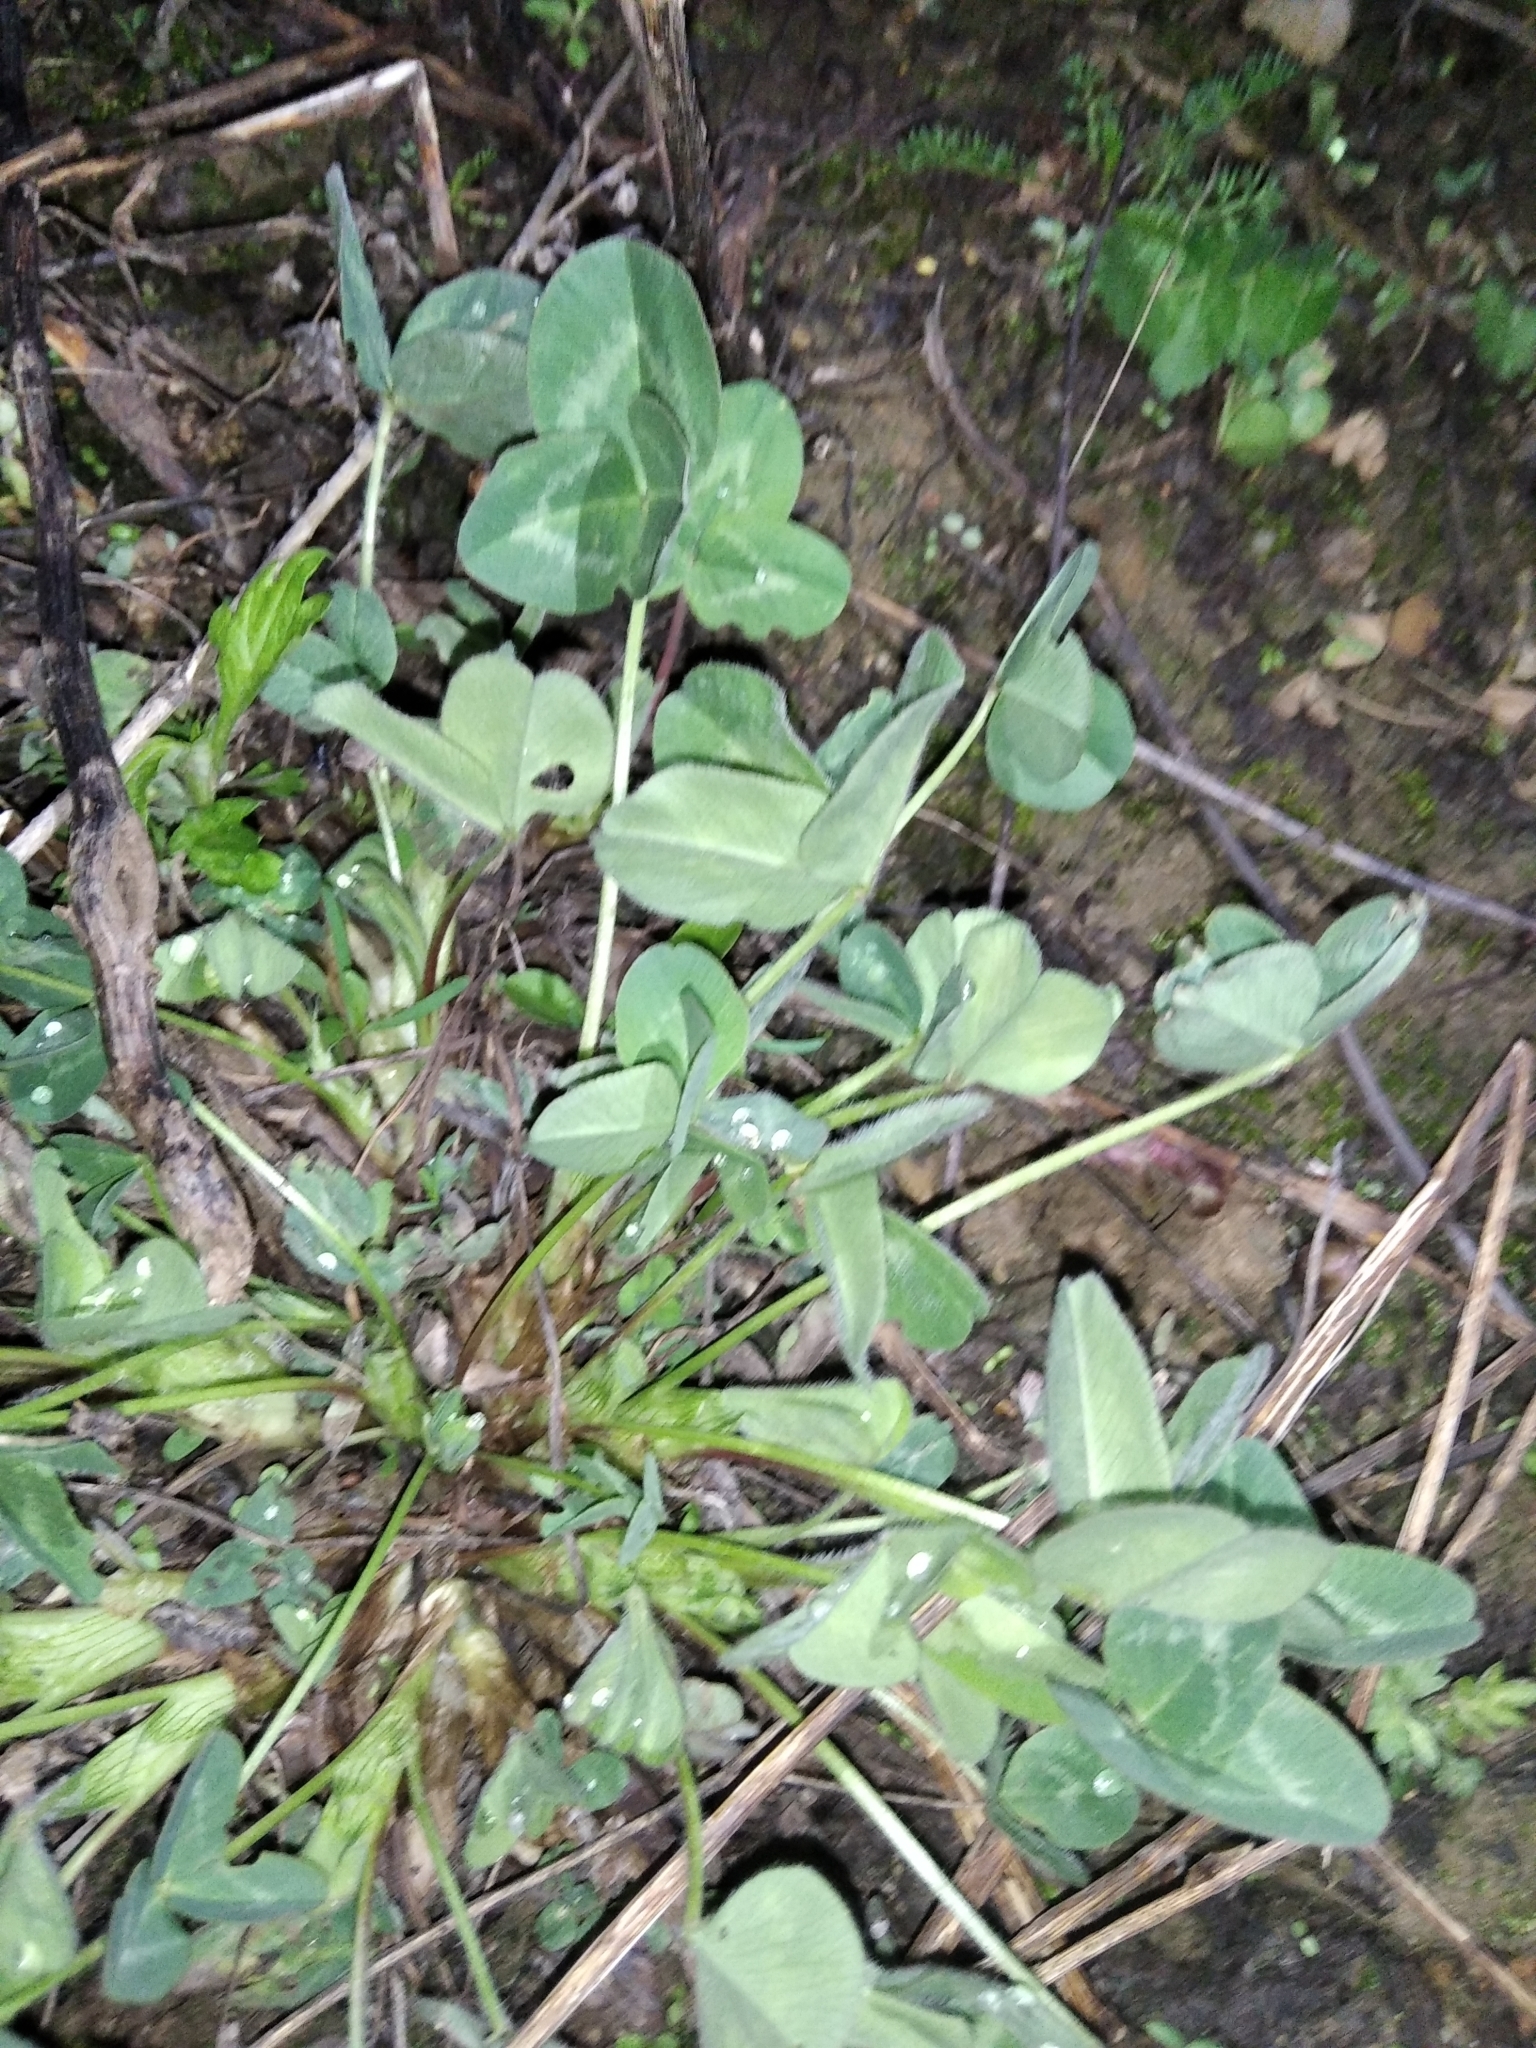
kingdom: Plantae
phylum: Tracheophyta
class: Magnoliopsida
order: Fabales
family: Fabaceae
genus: Trifolium
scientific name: Trifolium pratense
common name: Red clover
